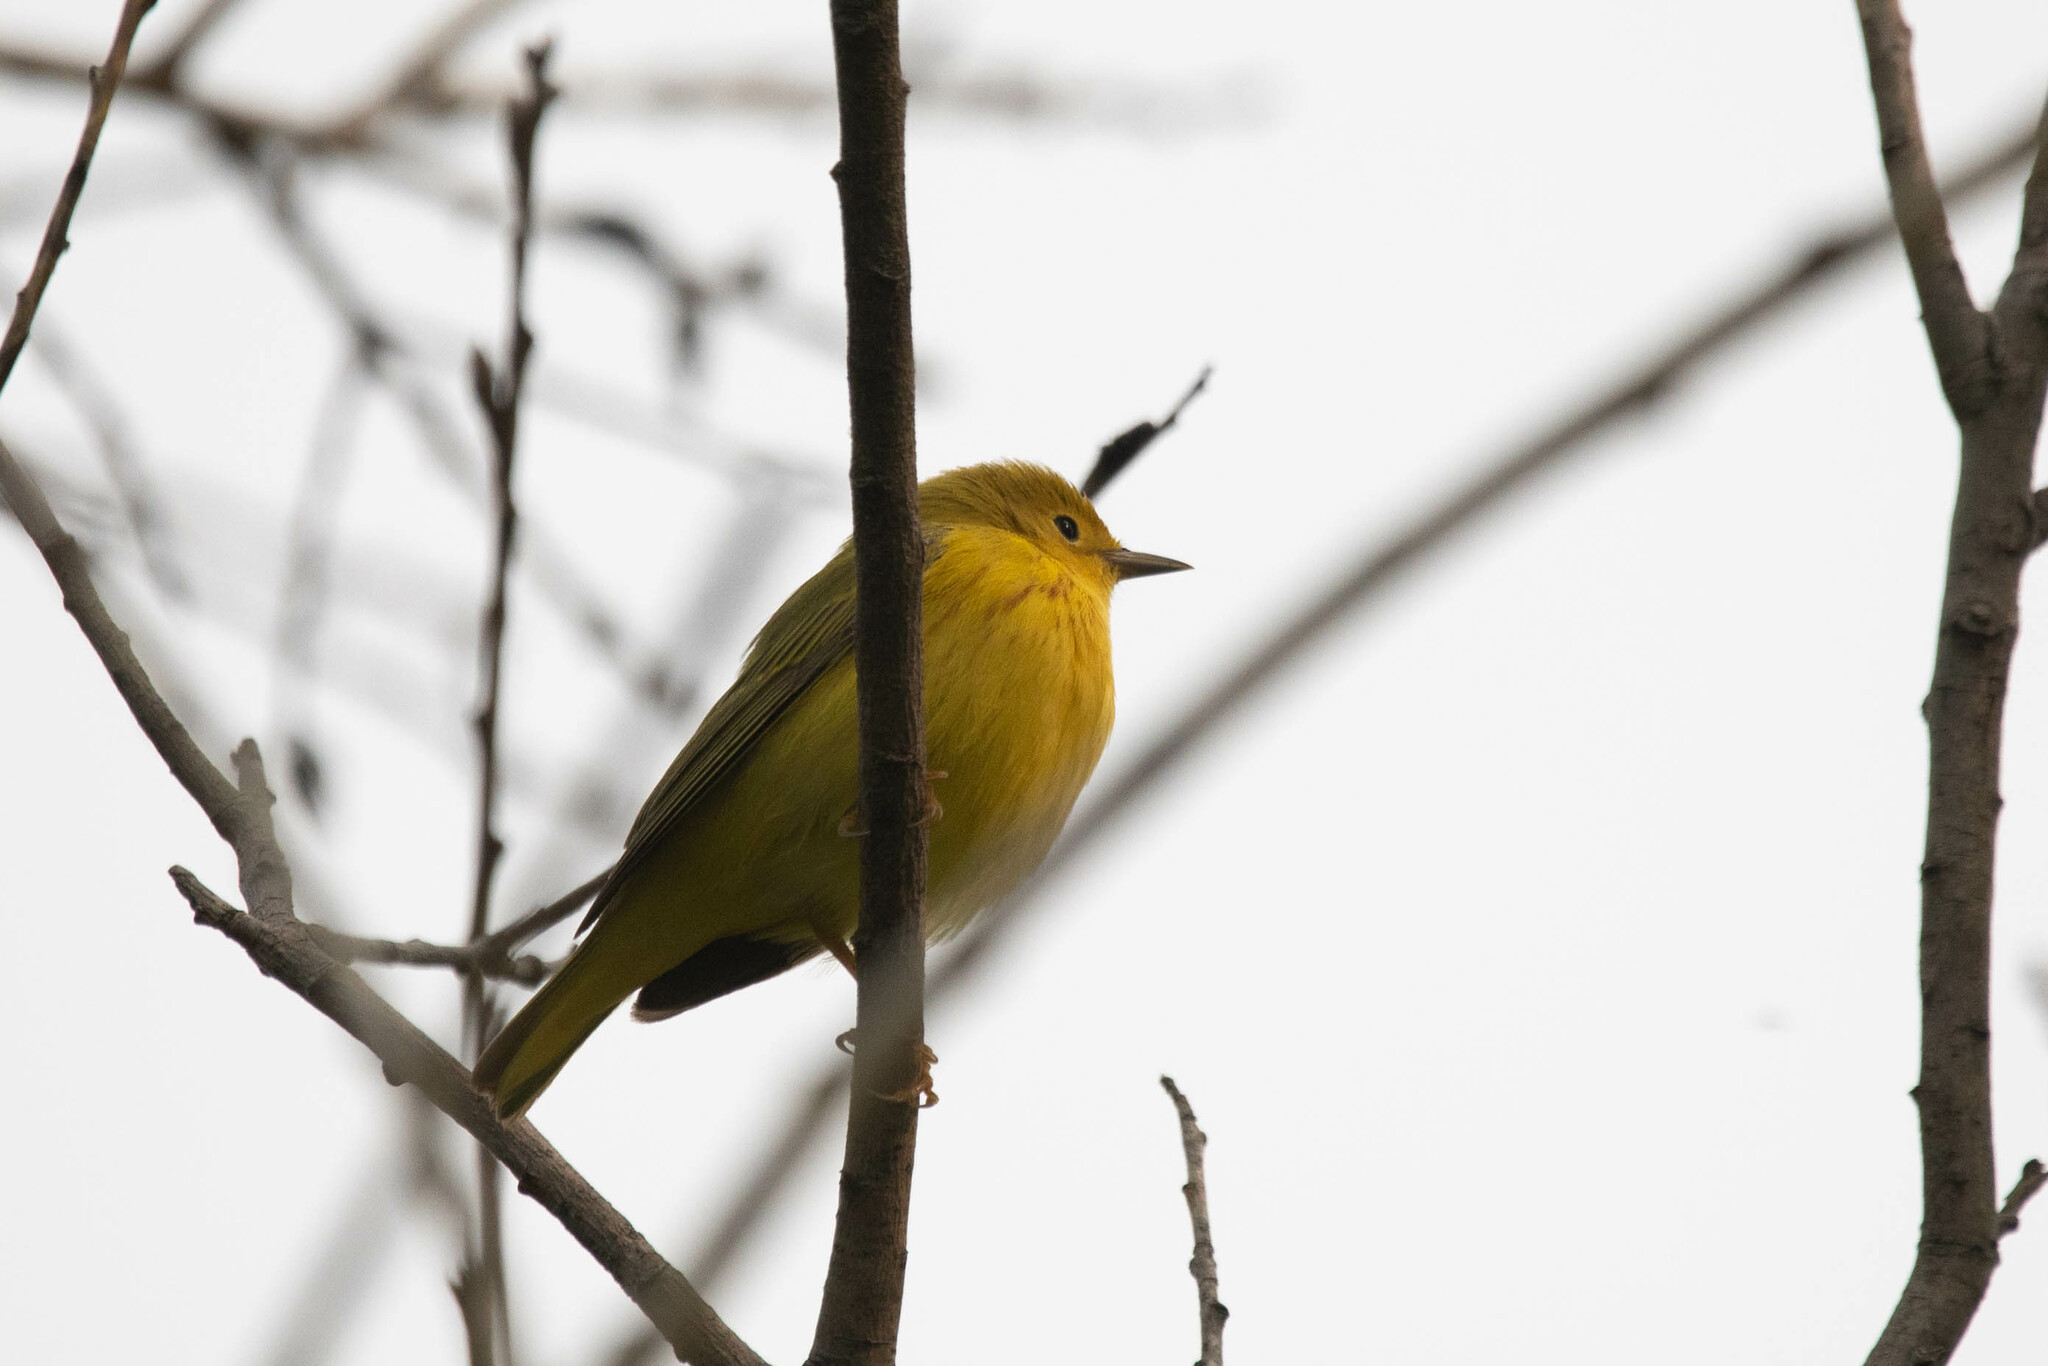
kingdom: Animalia
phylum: Chordata
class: Aves
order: Passeriformes
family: Parulidae
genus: Setophaga
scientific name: Setophaga petechia
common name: Yellow warbler
